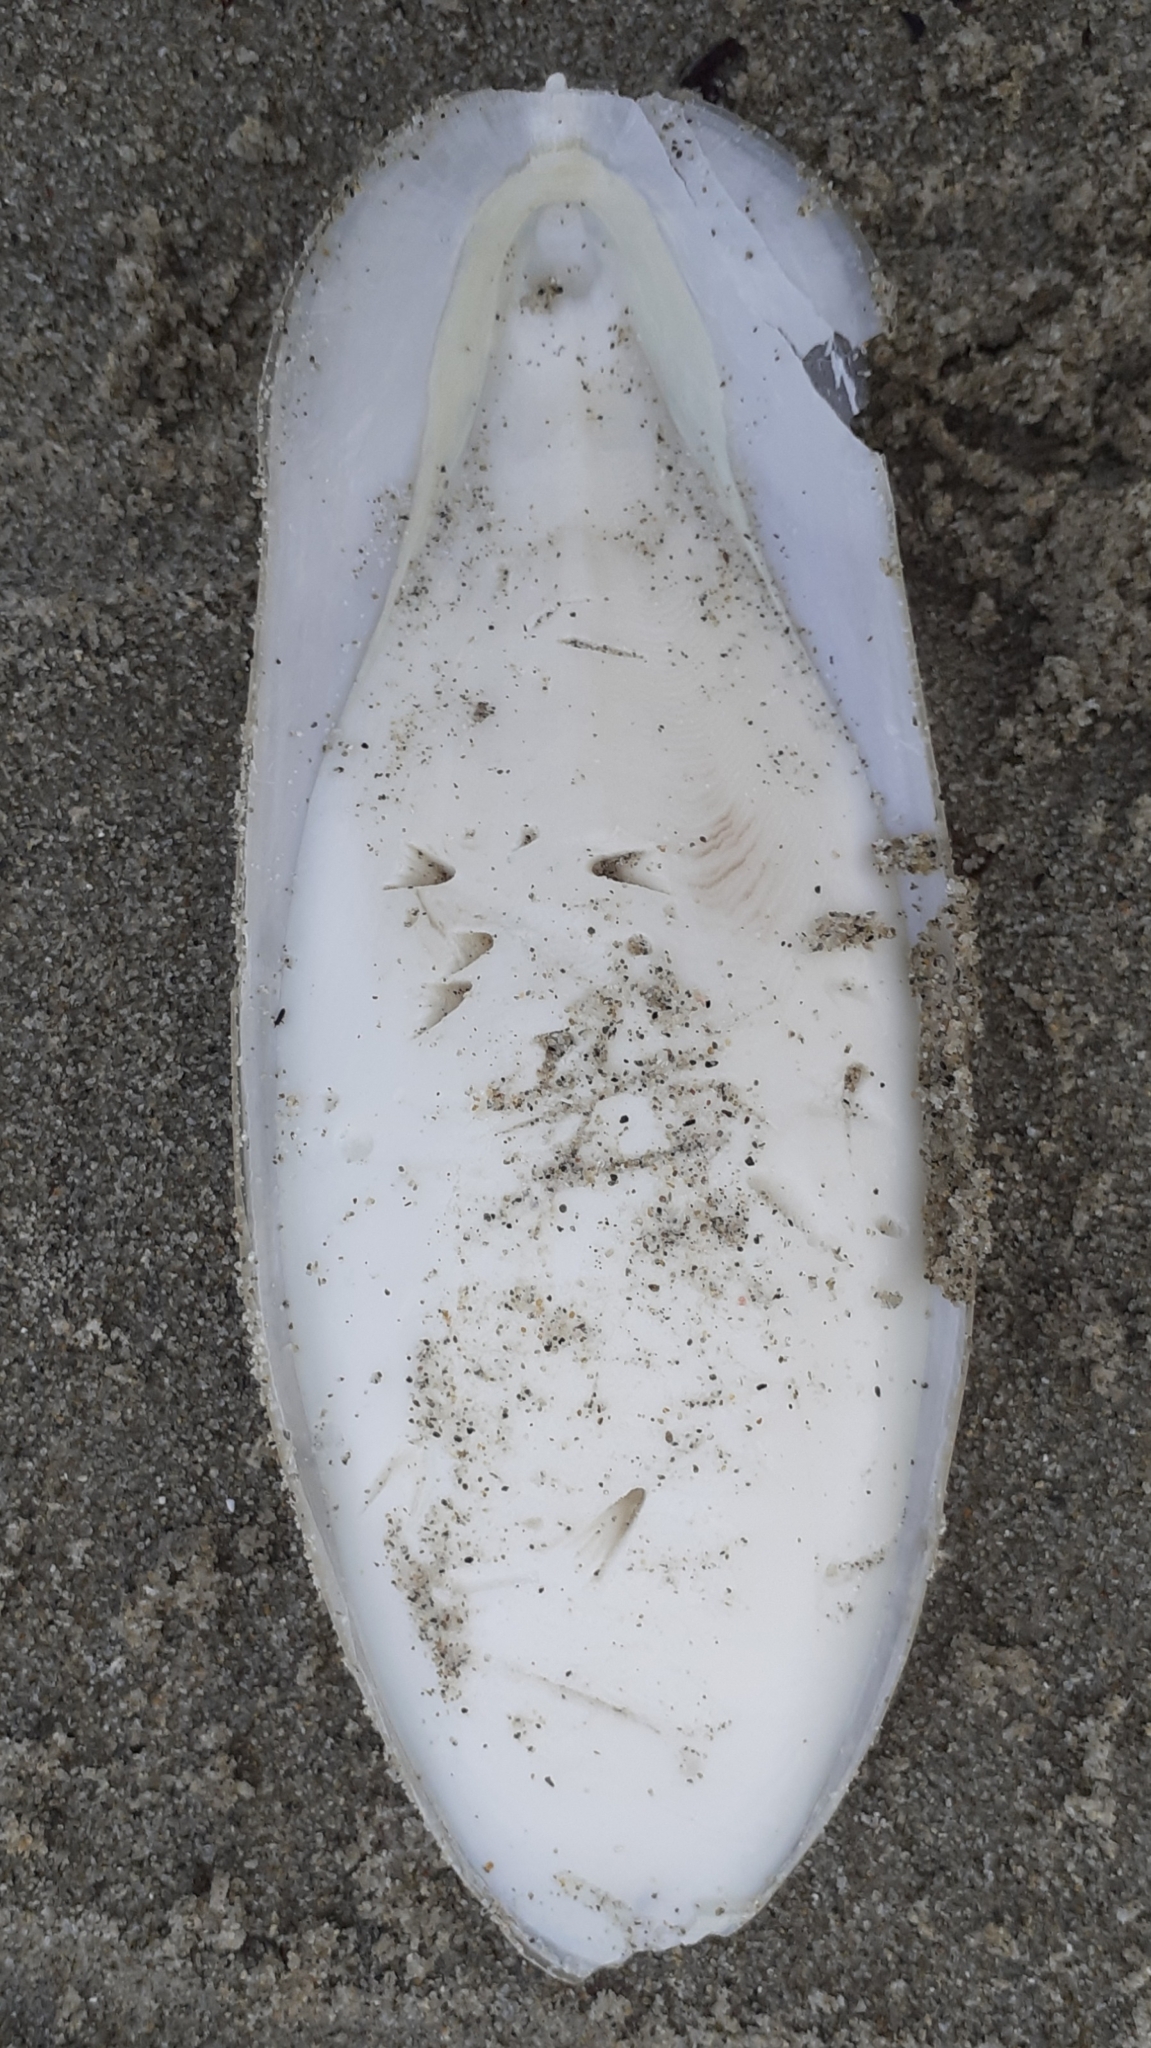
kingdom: Animalia
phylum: Mollusca
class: Cephalopoda
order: Sepiida
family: Sepiidae
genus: Sepia
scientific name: Sepia officinalis
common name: Common cuttlefish
